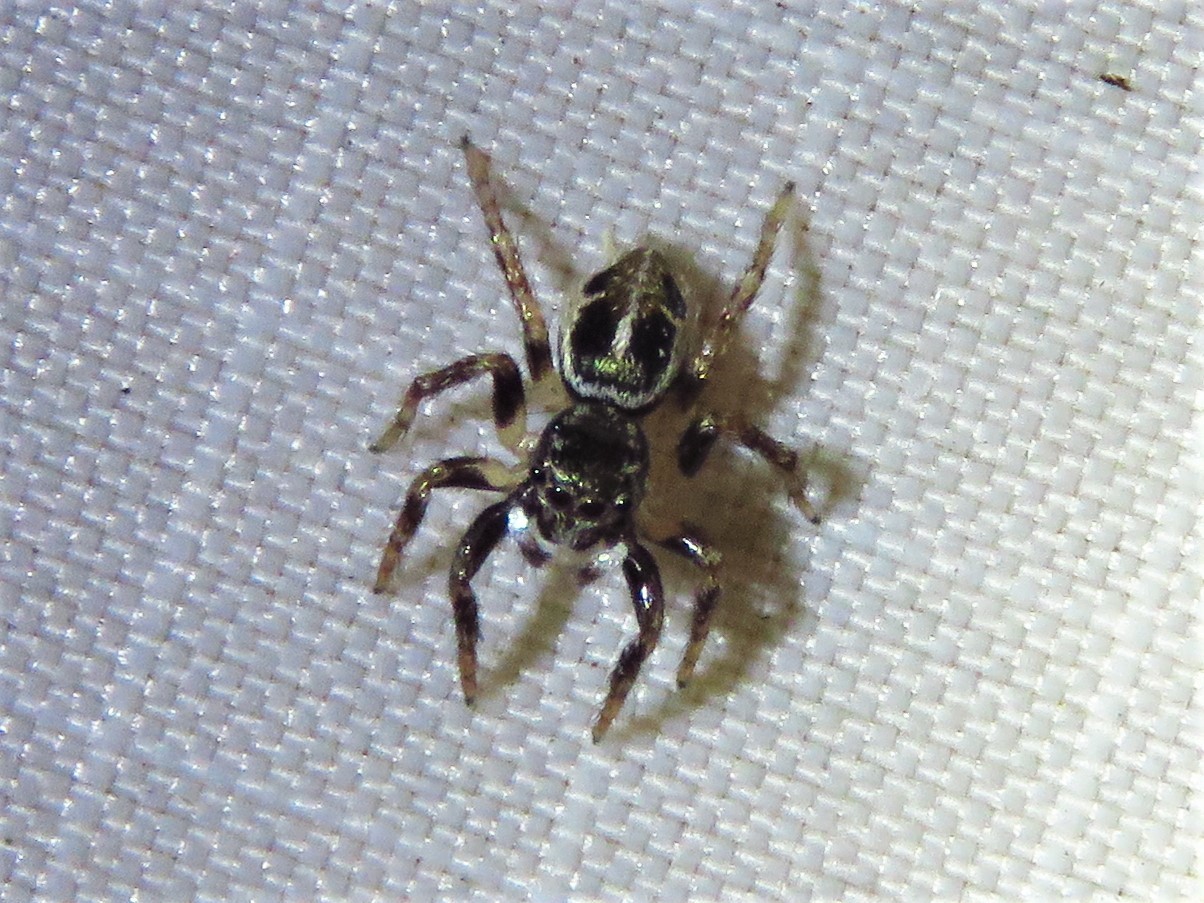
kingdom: Animalia
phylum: Arthropoda
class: Arachnida
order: Araneae
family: Salticidae
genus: Anasaitis
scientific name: Anasaitis canosa
